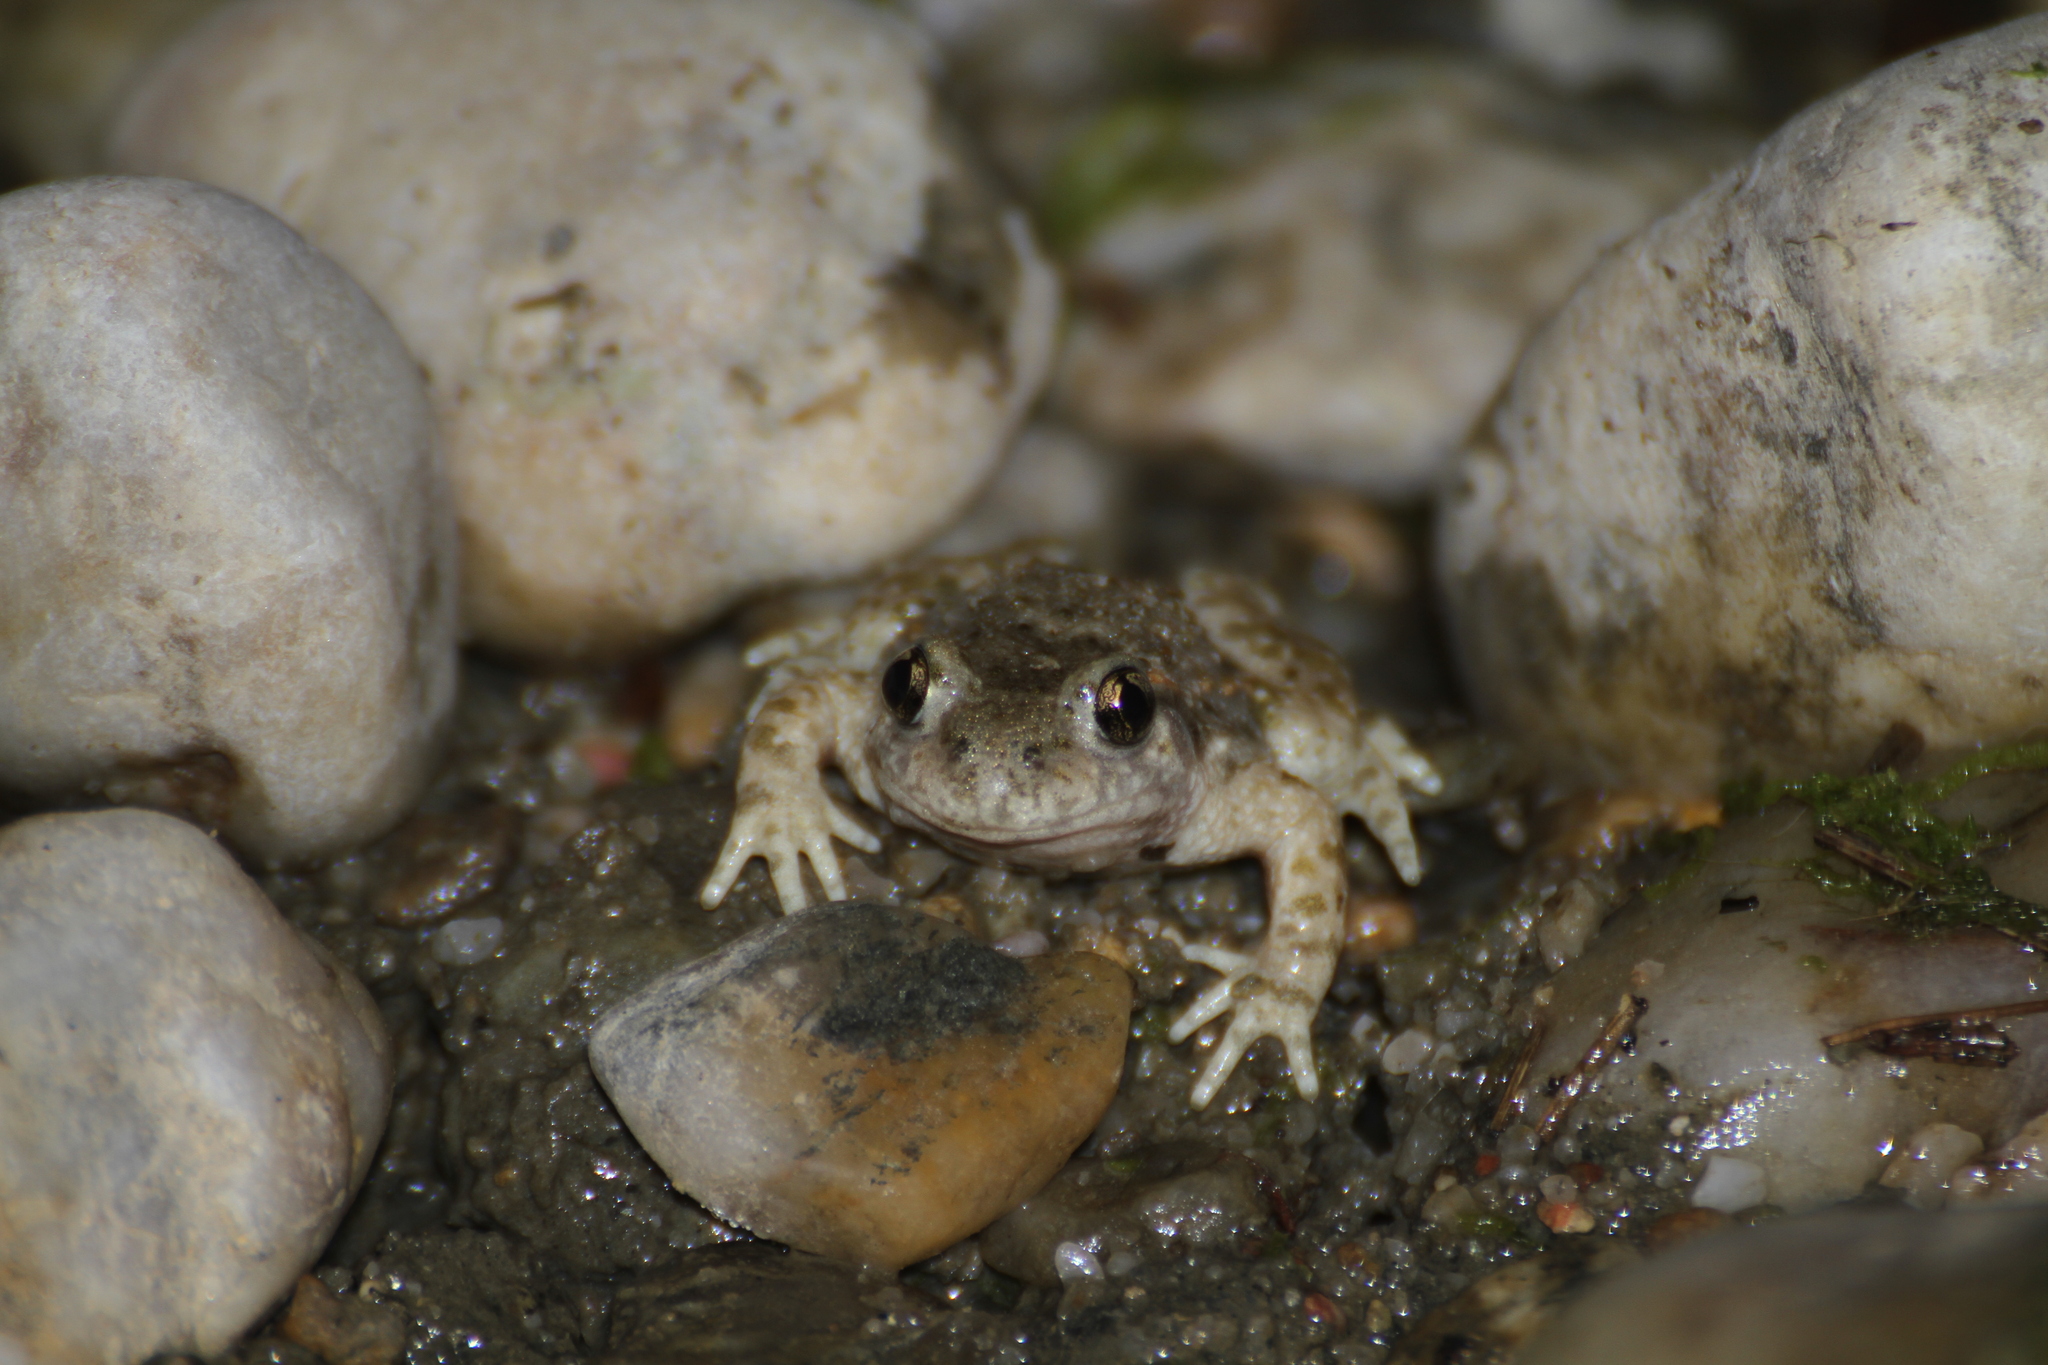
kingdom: Animalia
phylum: Chordata
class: Amphibia
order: Anura
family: Alytidae
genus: Alytes
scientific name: Alytes obstetricans
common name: Midwife toad
